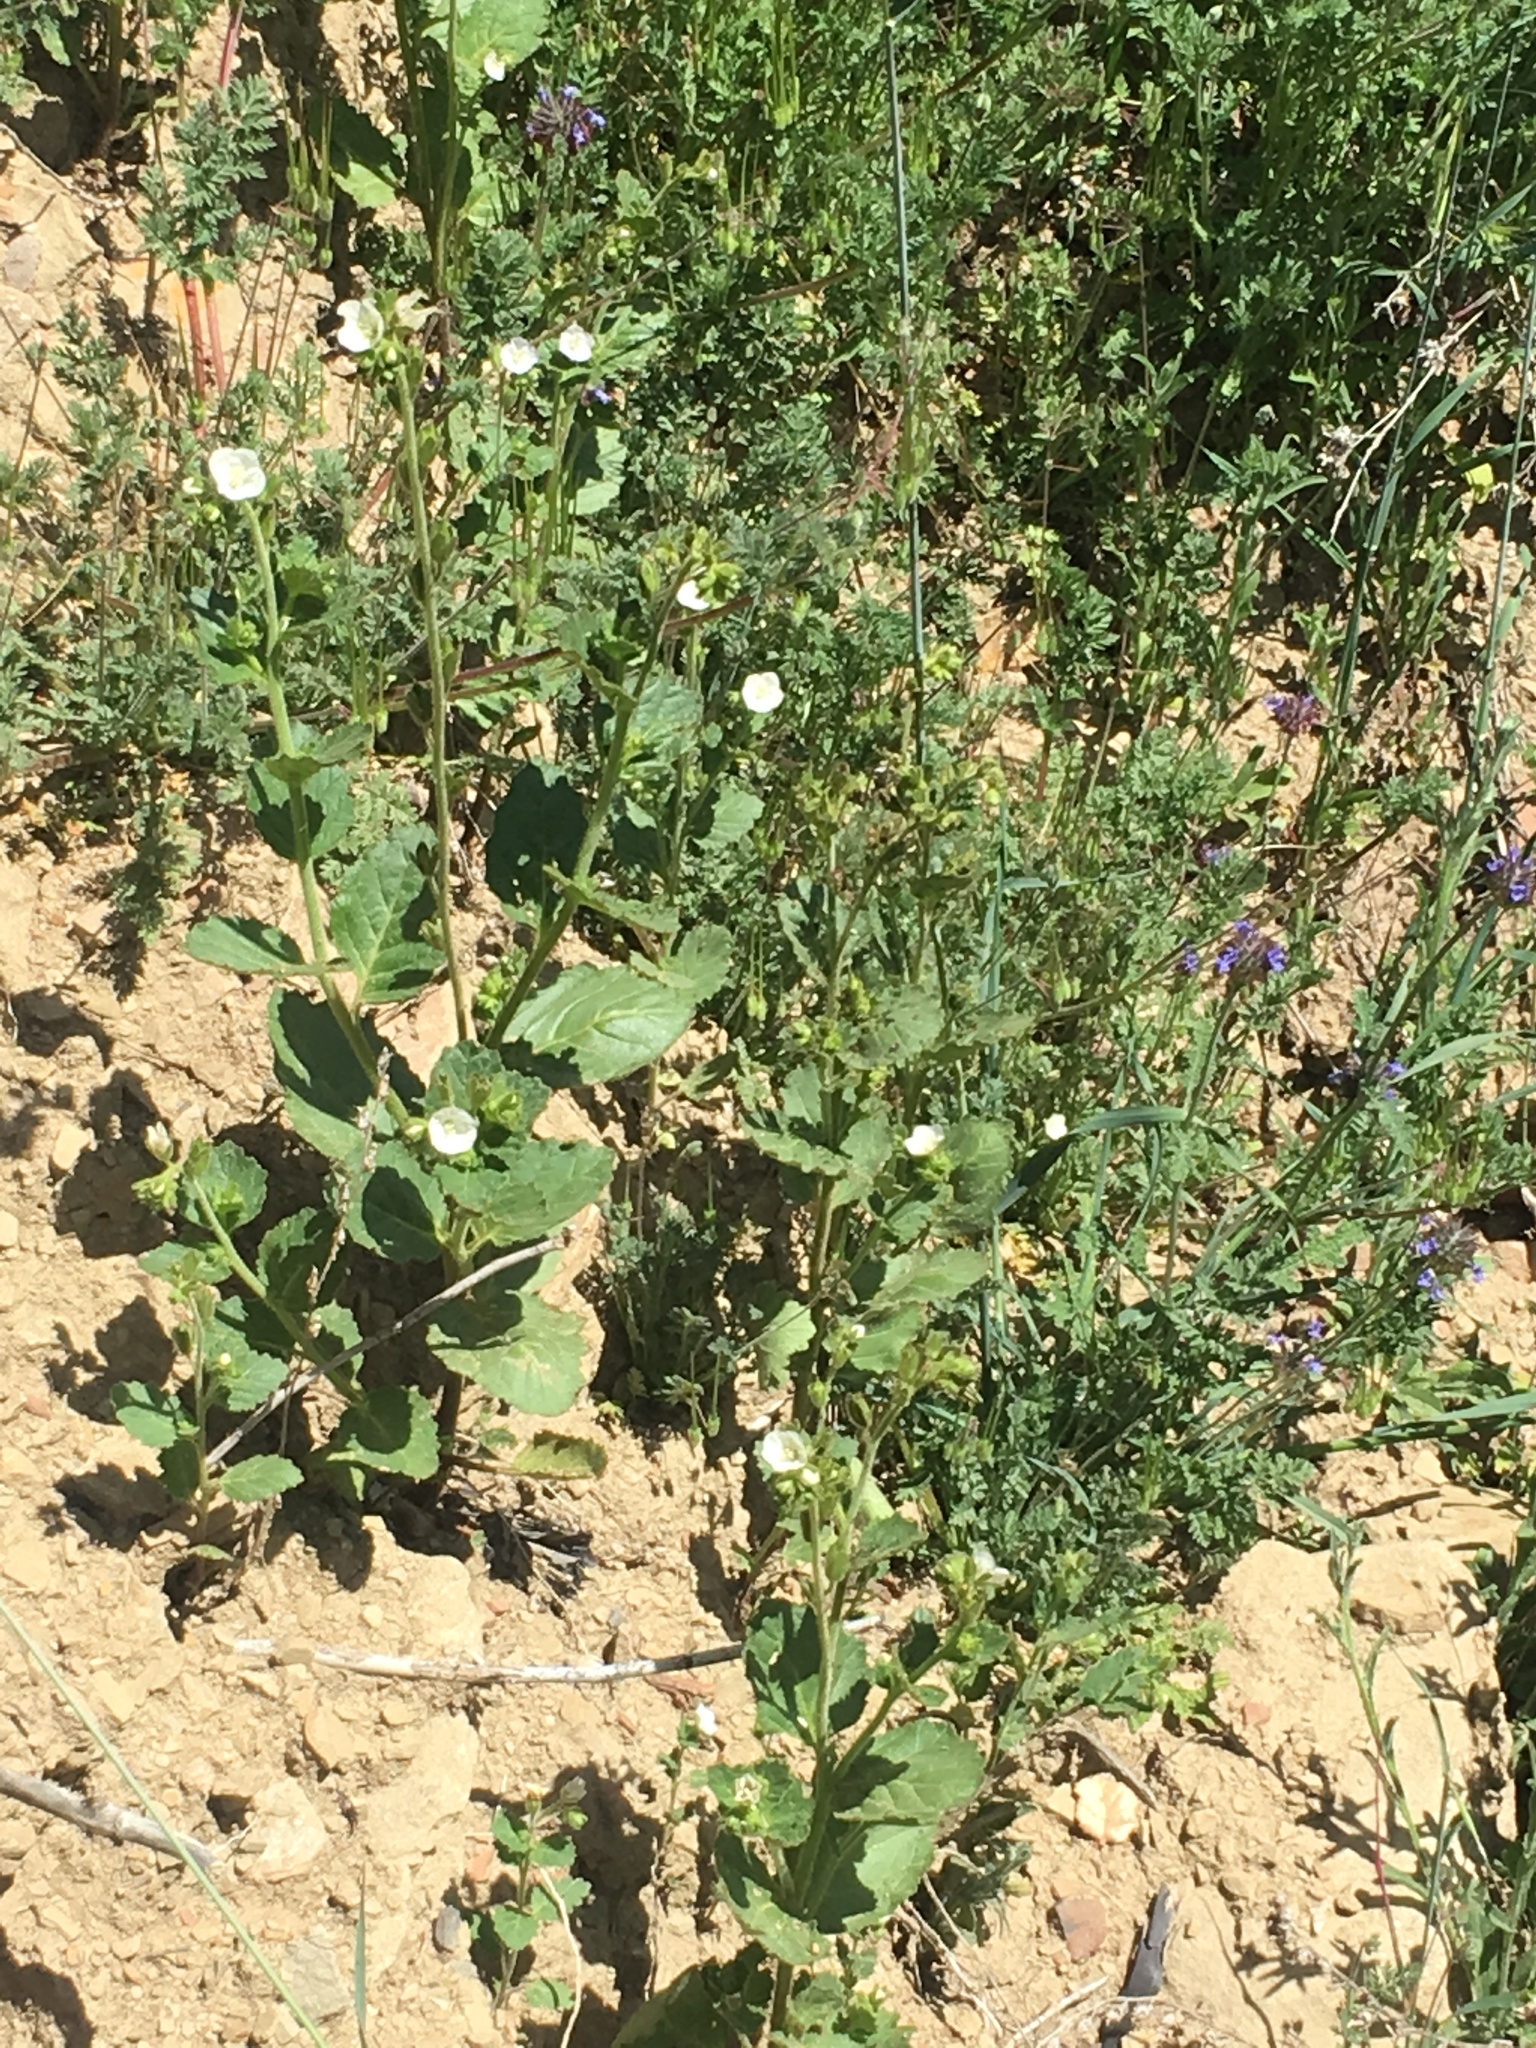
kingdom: Plantae
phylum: Tracheophyta
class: Magnoliopsida
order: Boraginales
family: Hydrophyllaceae
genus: Phacelia
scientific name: Phacelia viscida
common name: Sticky phacelia
